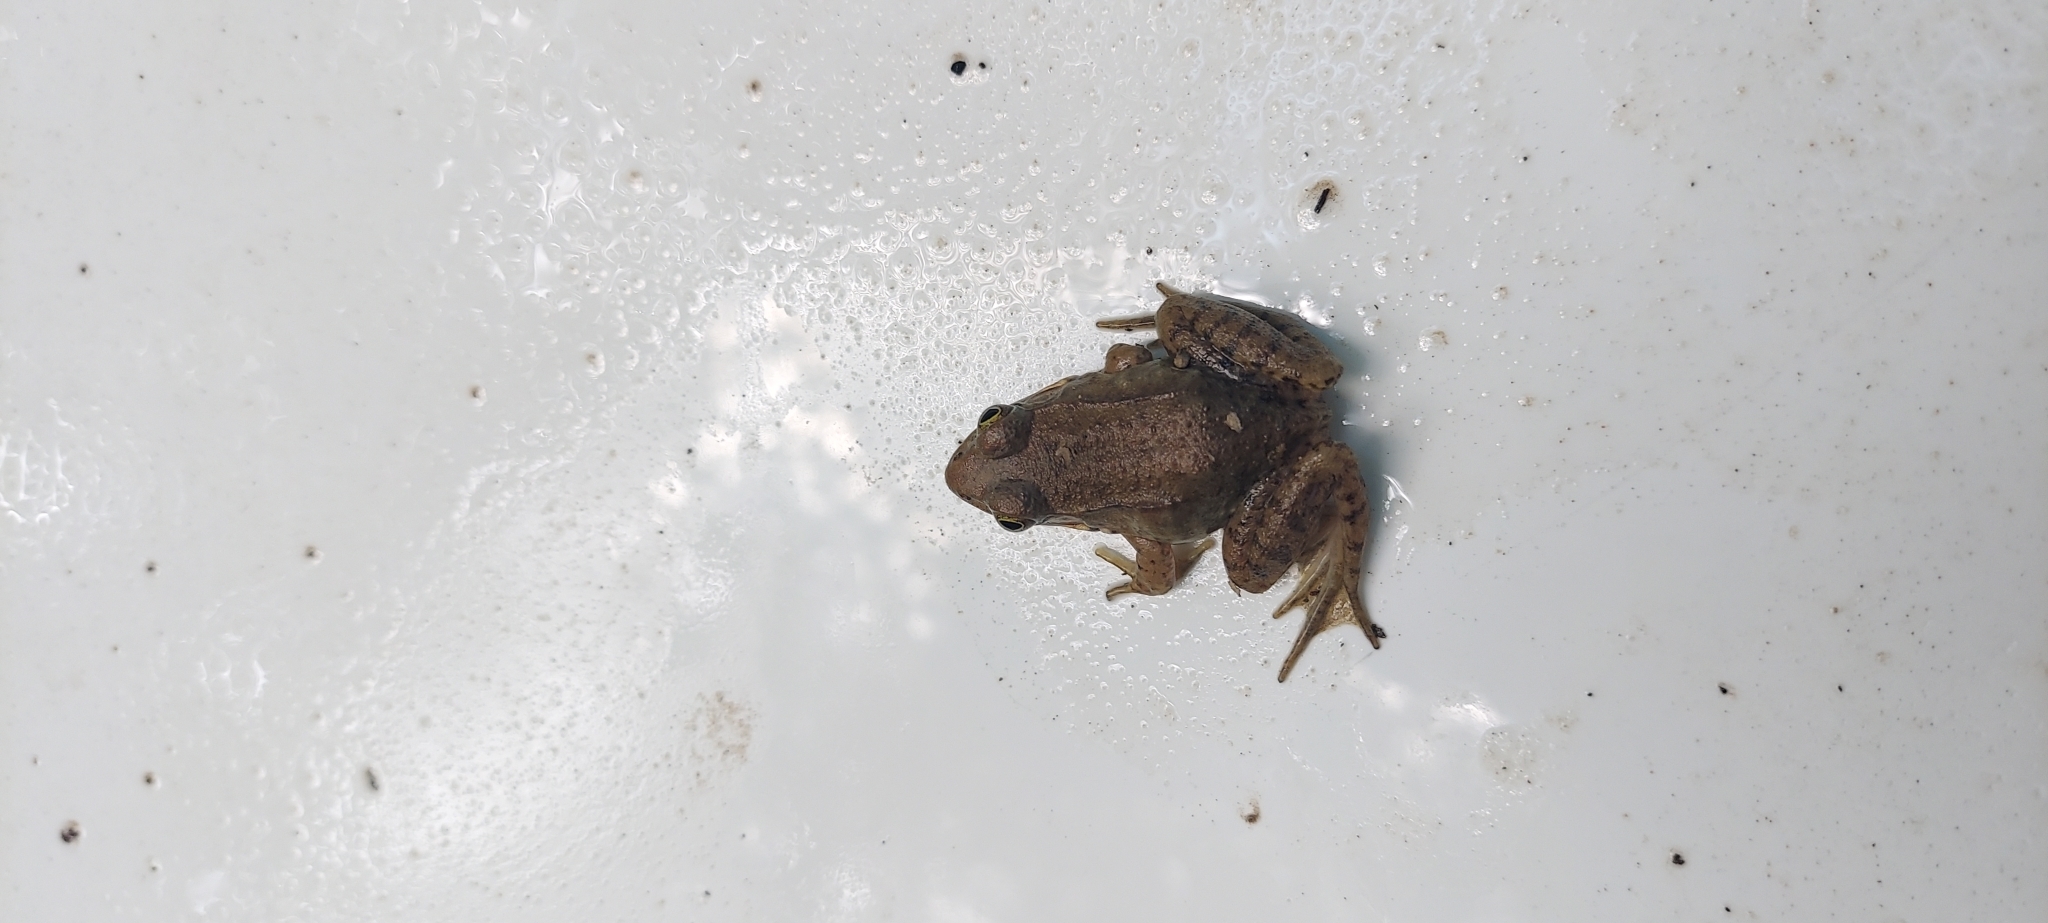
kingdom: Animalia
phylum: Chordata
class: Amphibia
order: Anura
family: Ranidae
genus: Lithobates
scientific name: Lithobates clamitans
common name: Green frog
